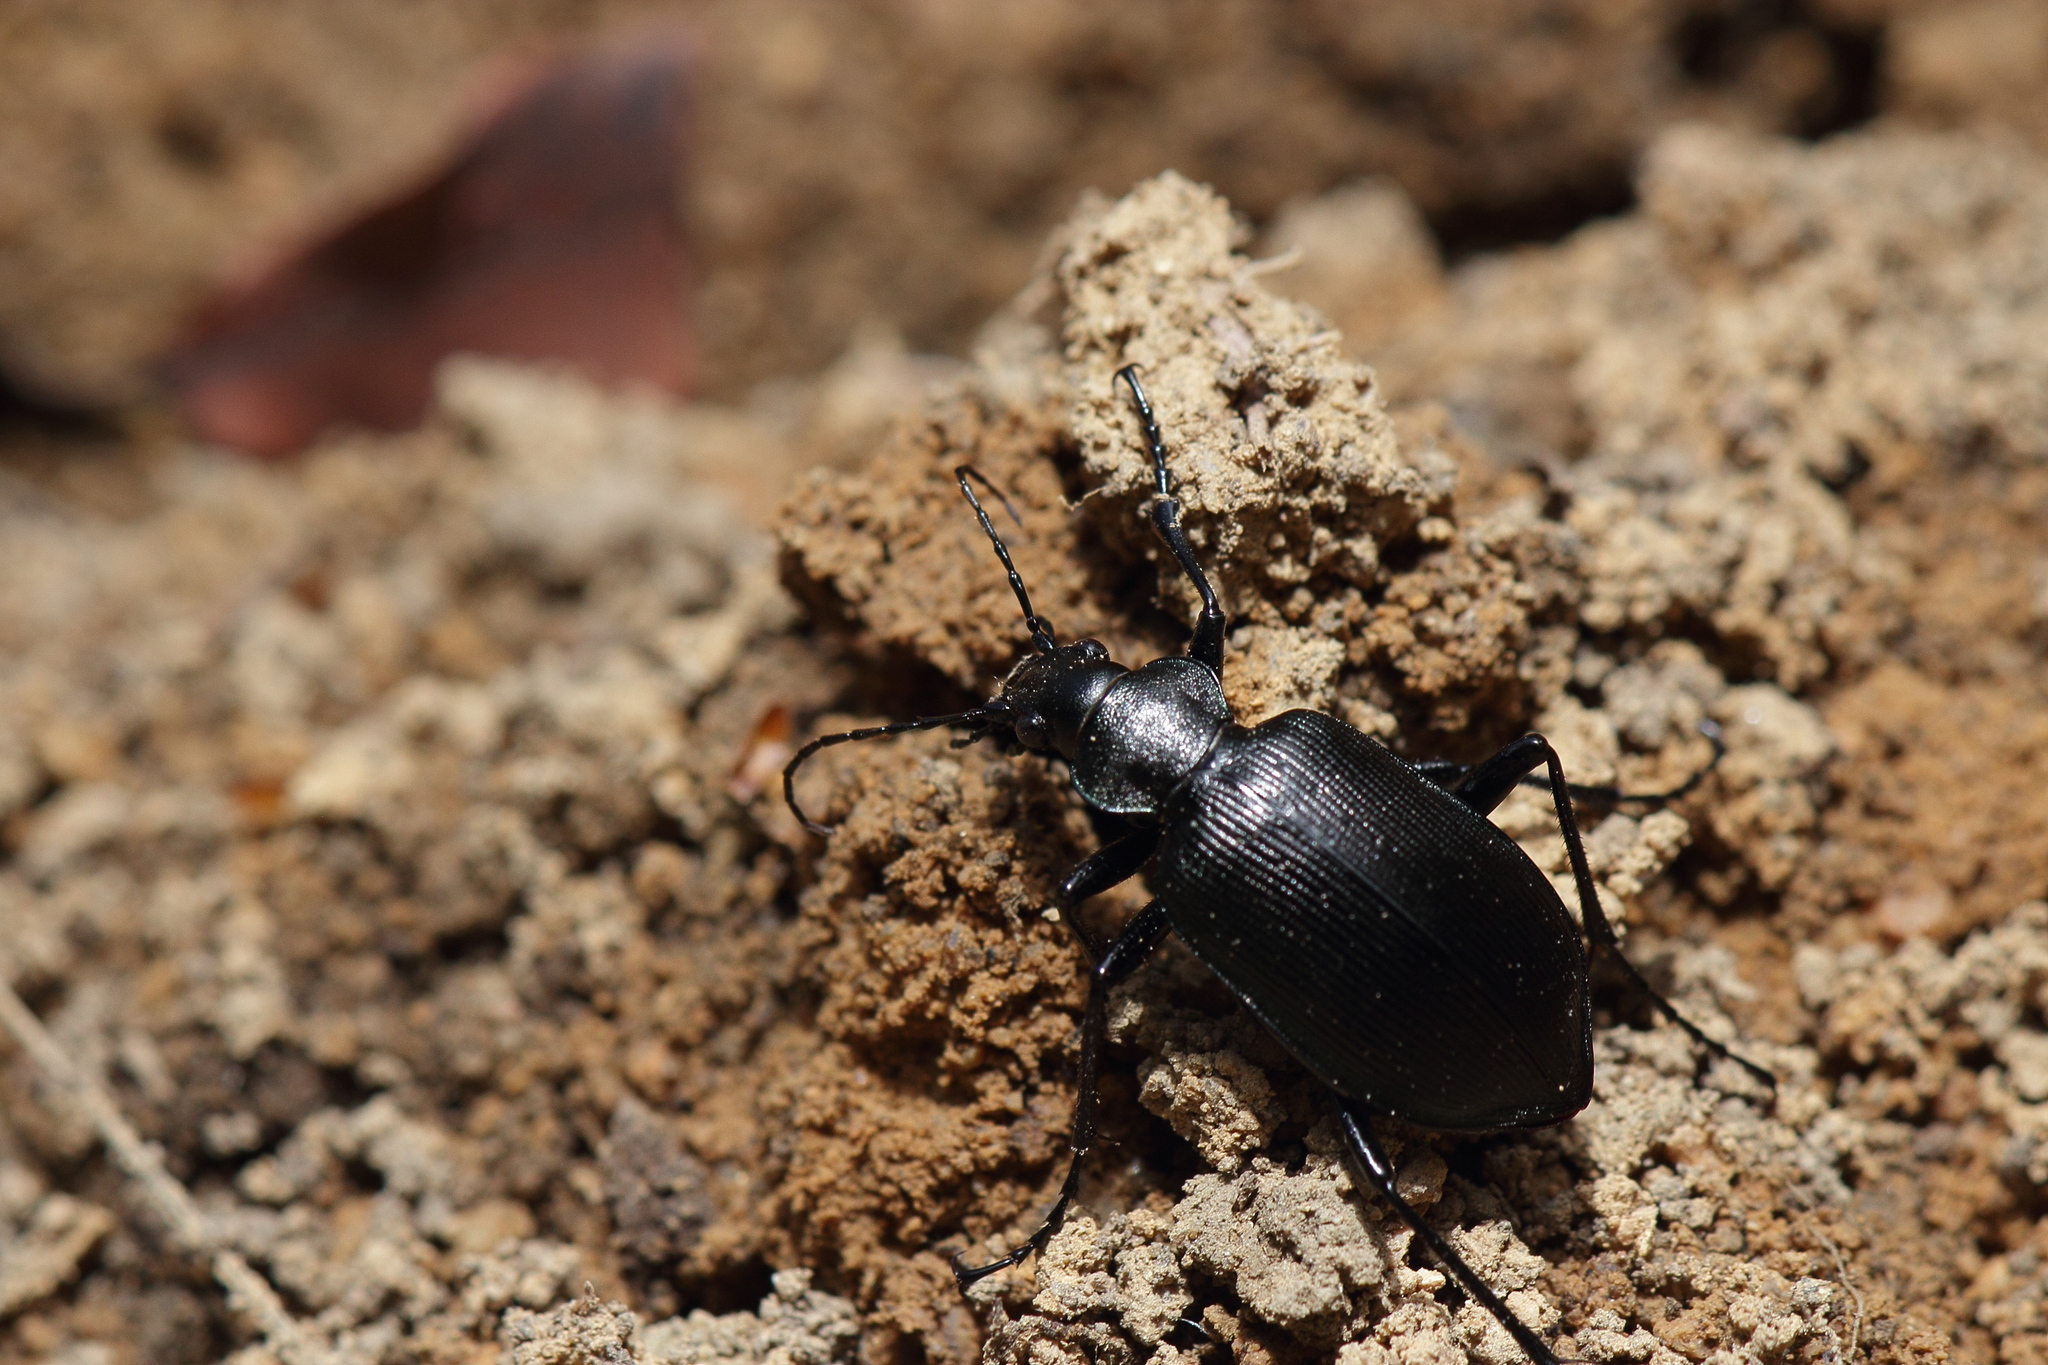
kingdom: Animalia
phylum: Arthropoda
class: Insecta
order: Coleoptera
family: Carabidae
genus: Calosoma
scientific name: Calosoma maximowiczi
